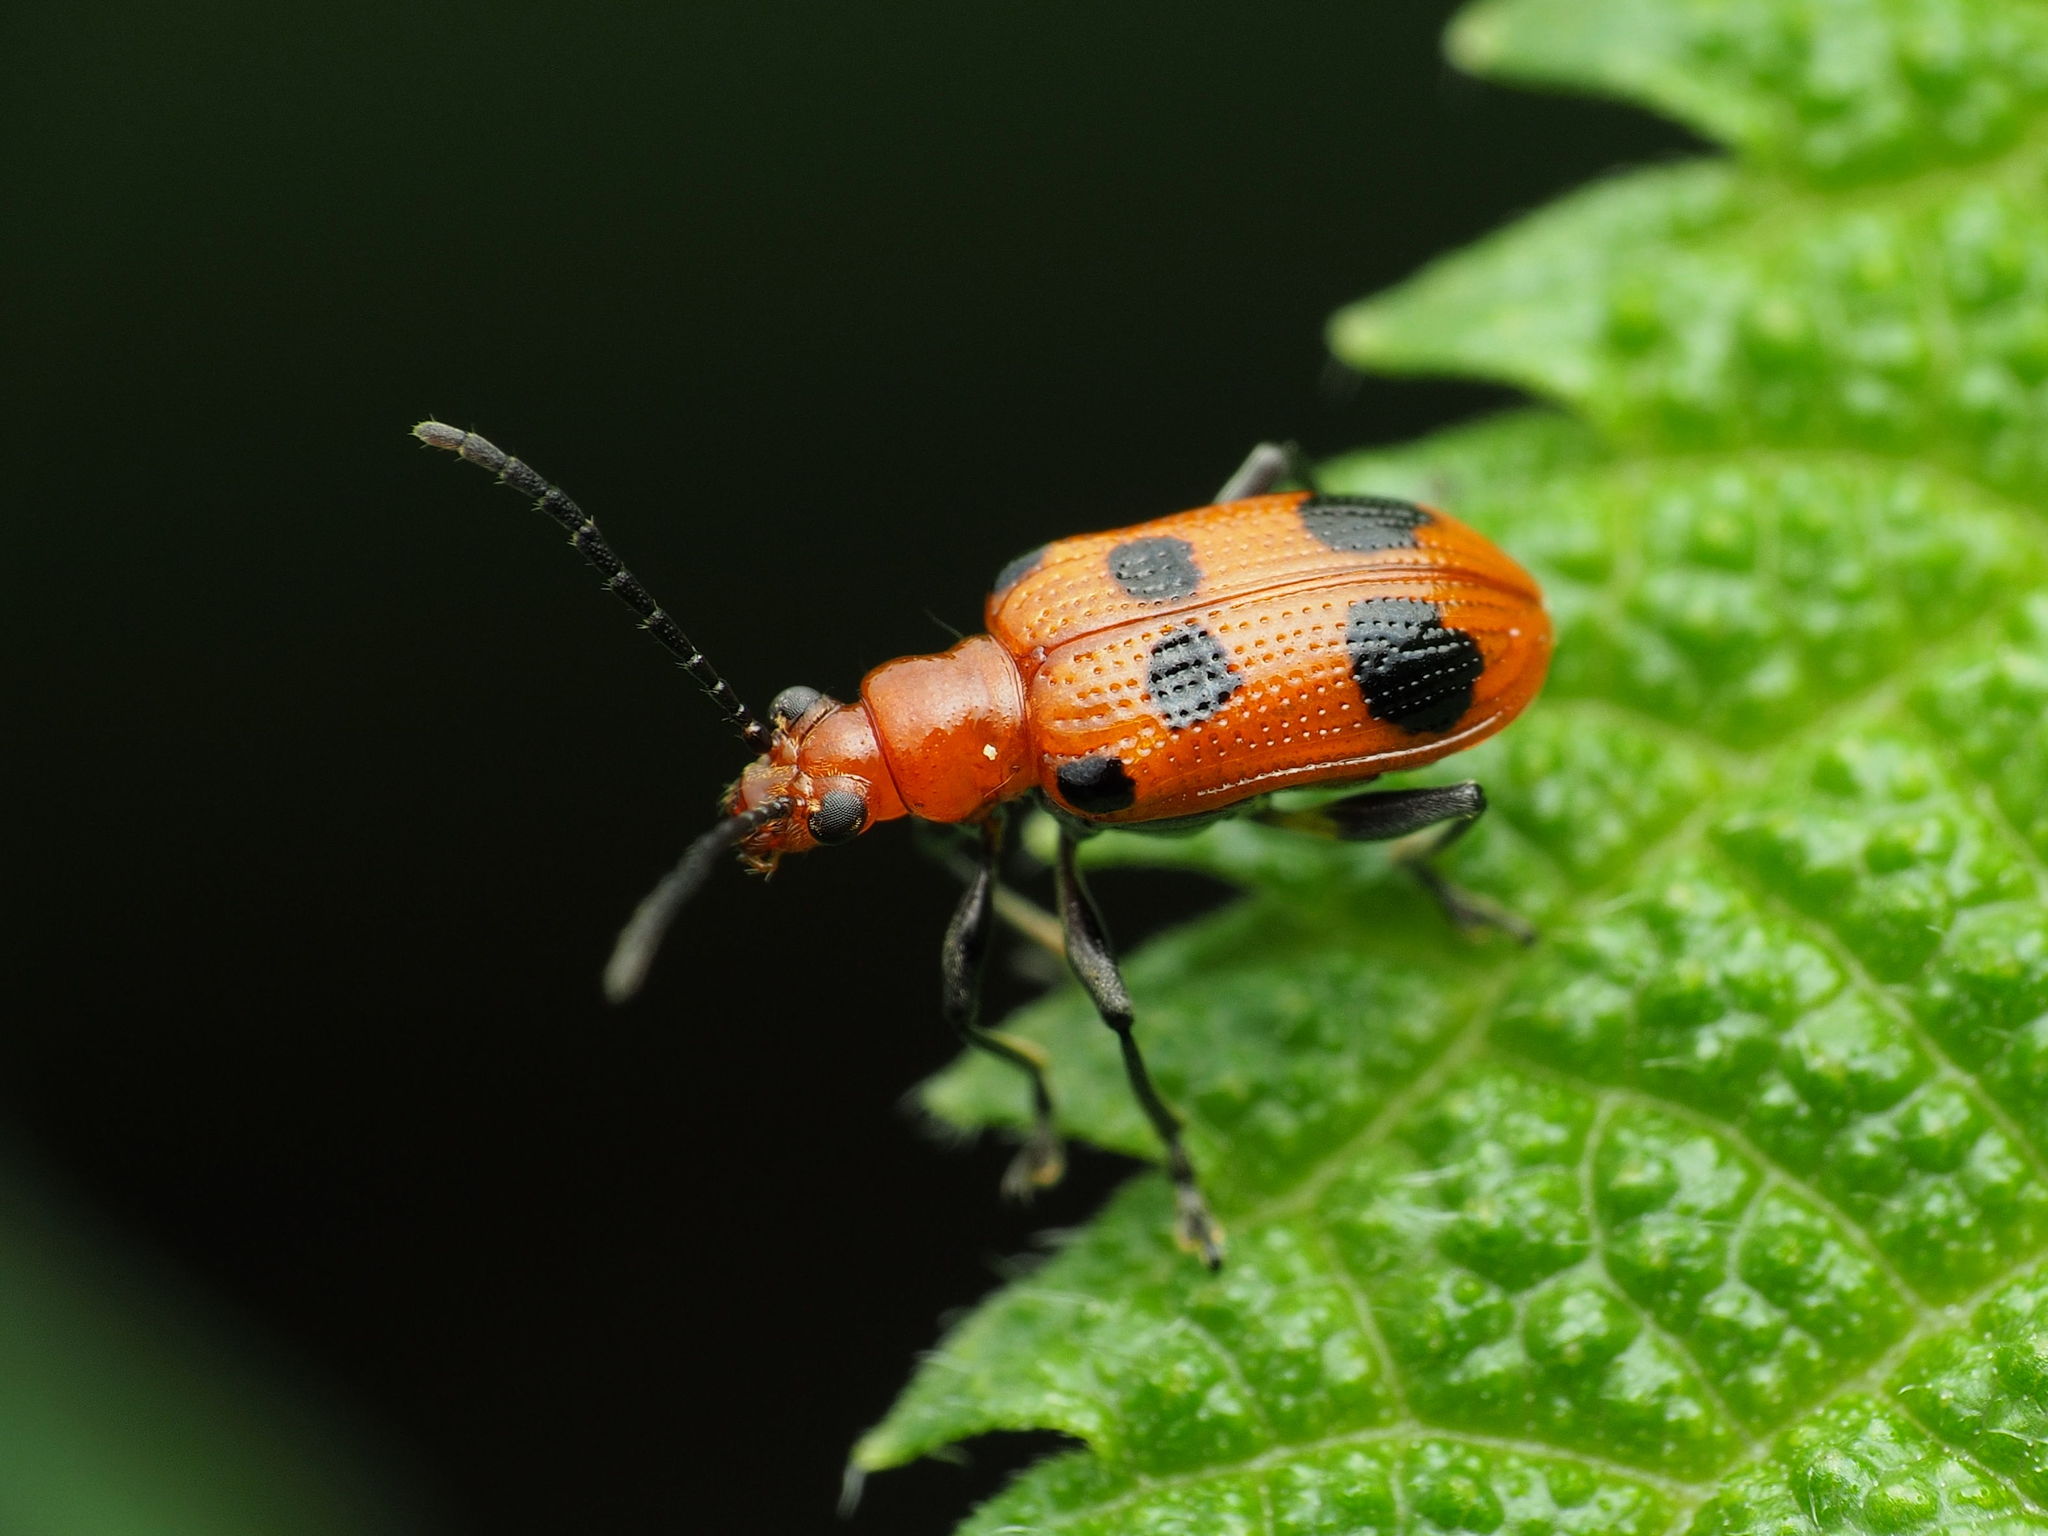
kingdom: Animalia
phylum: Arthropoda
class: Insecta
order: Coleoptera
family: Chrysomelidae
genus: Neolema
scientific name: Neolema sexpunctata
